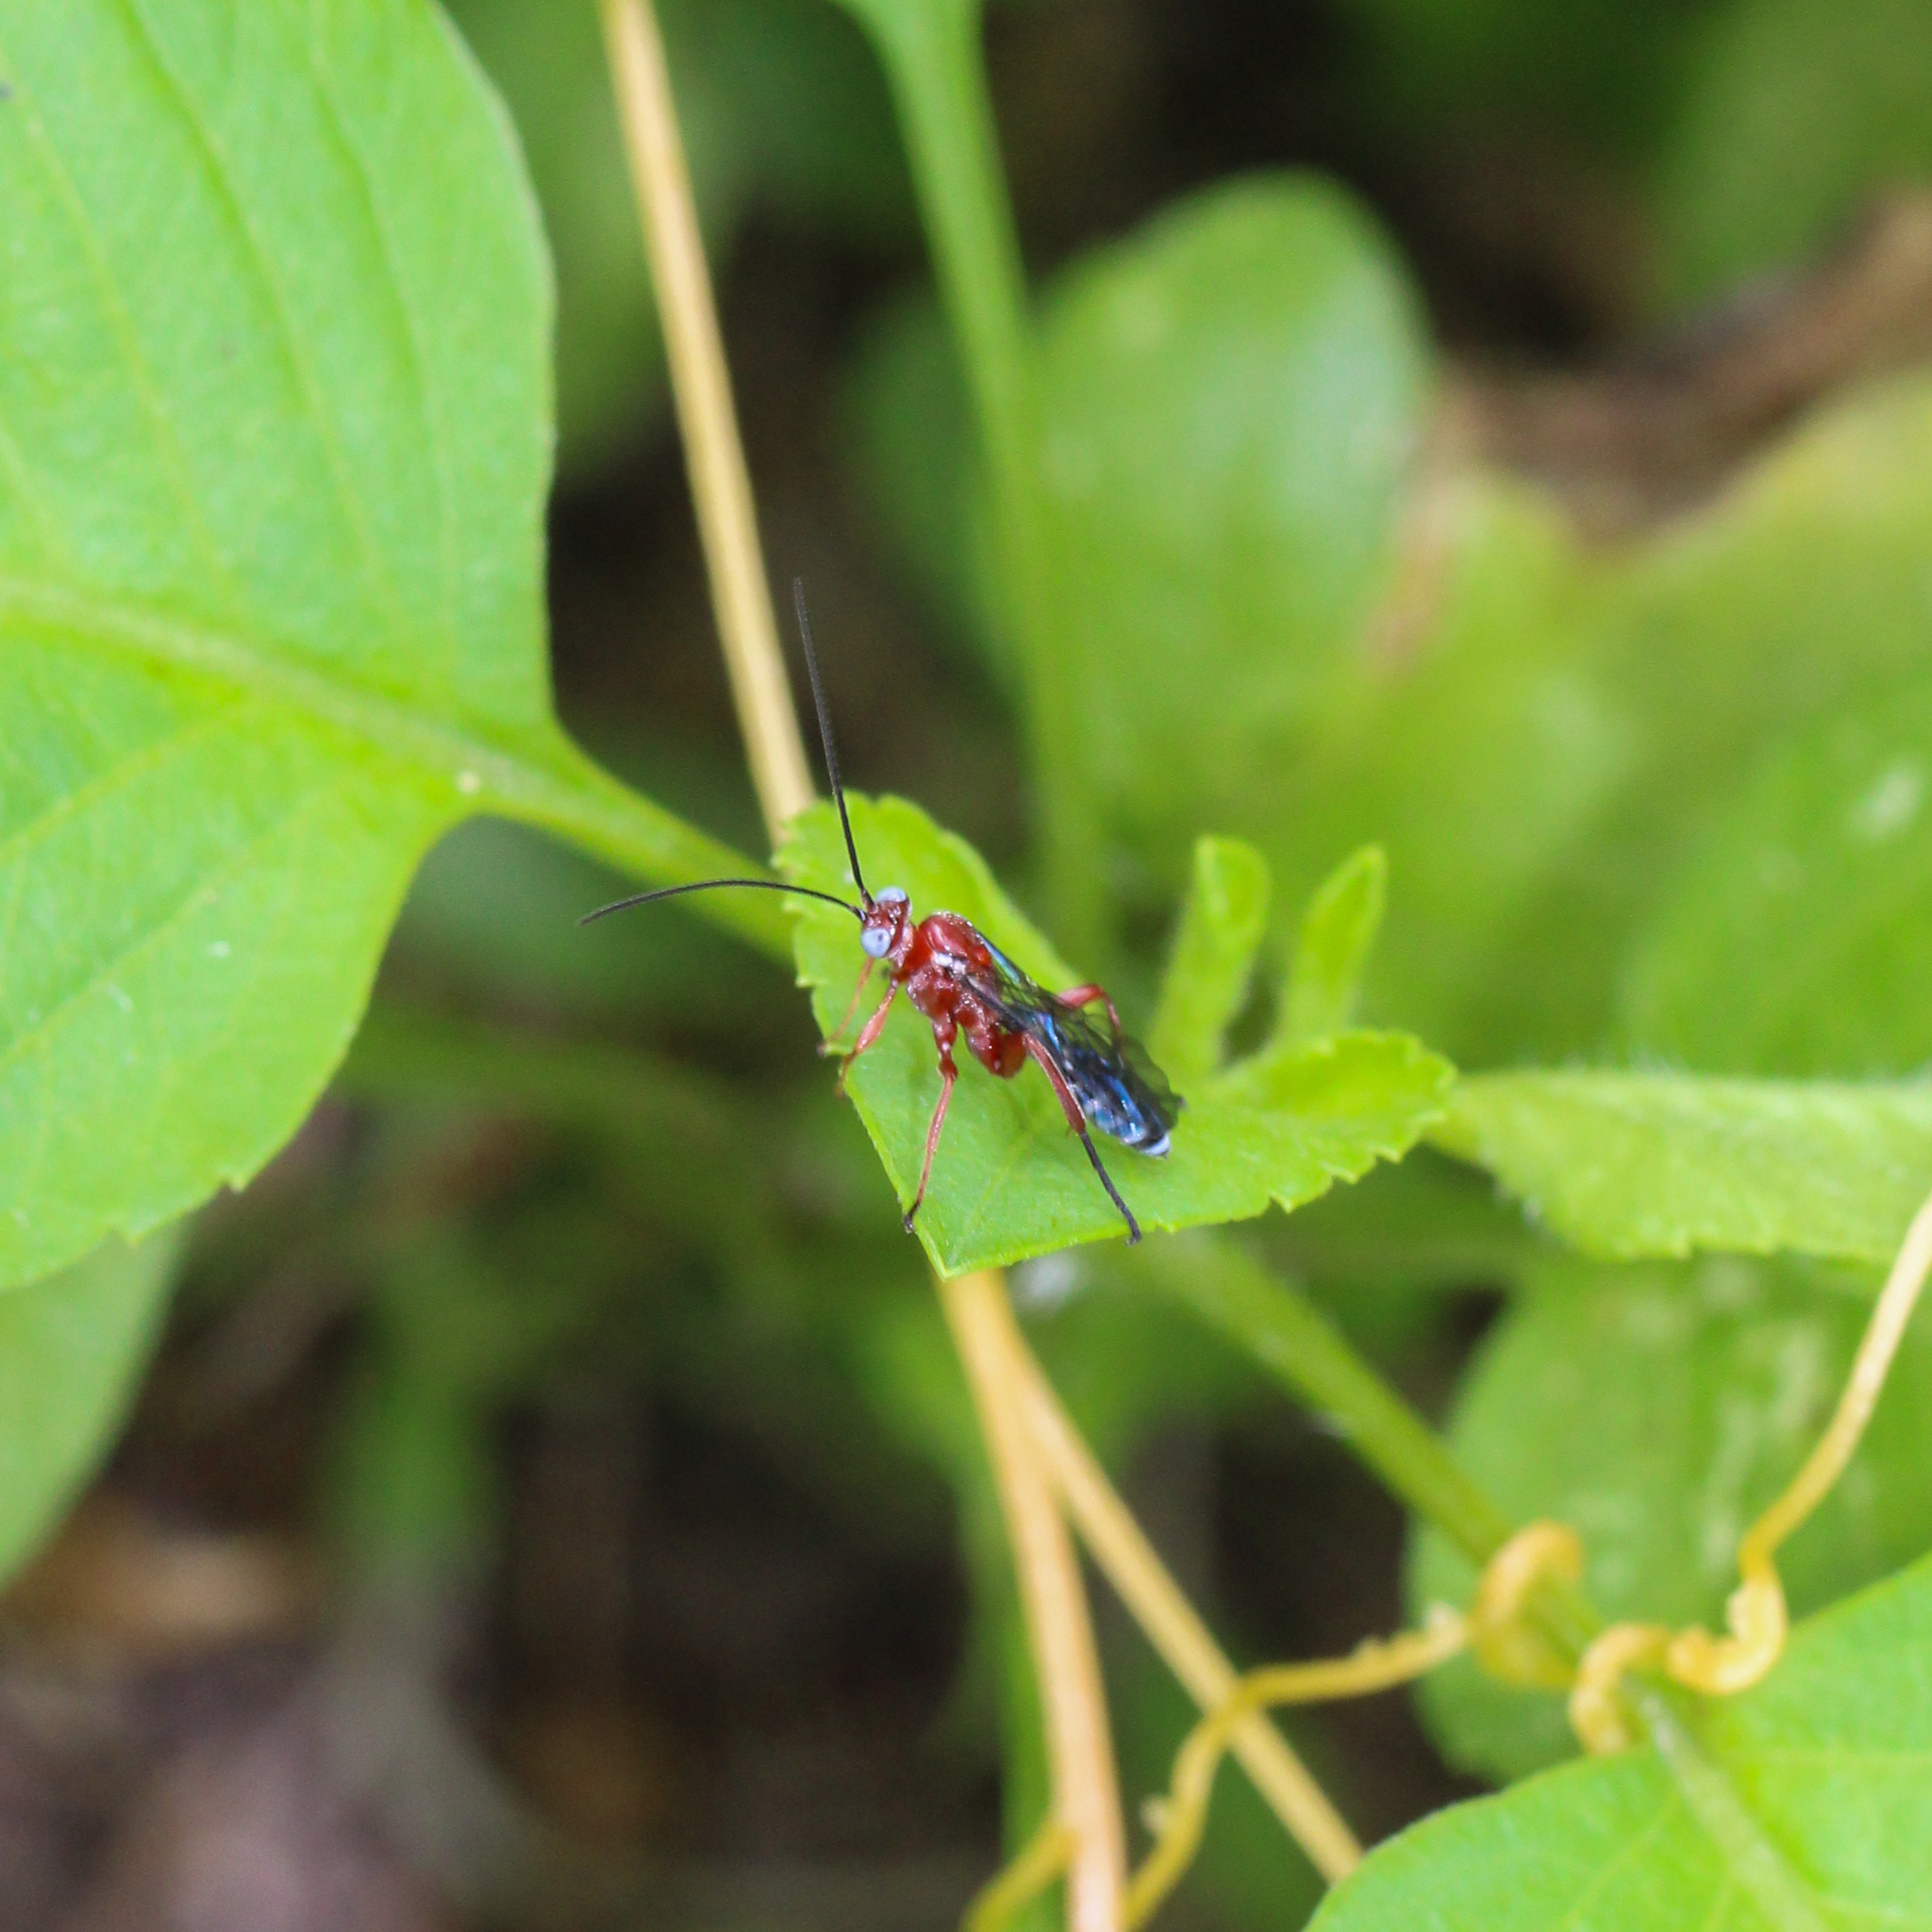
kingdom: Animalia
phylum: Arthropoda
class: Insecta
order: Hymenoptera
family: Ichneumonidae
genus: Pimpla
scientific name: Pimpla marginella
